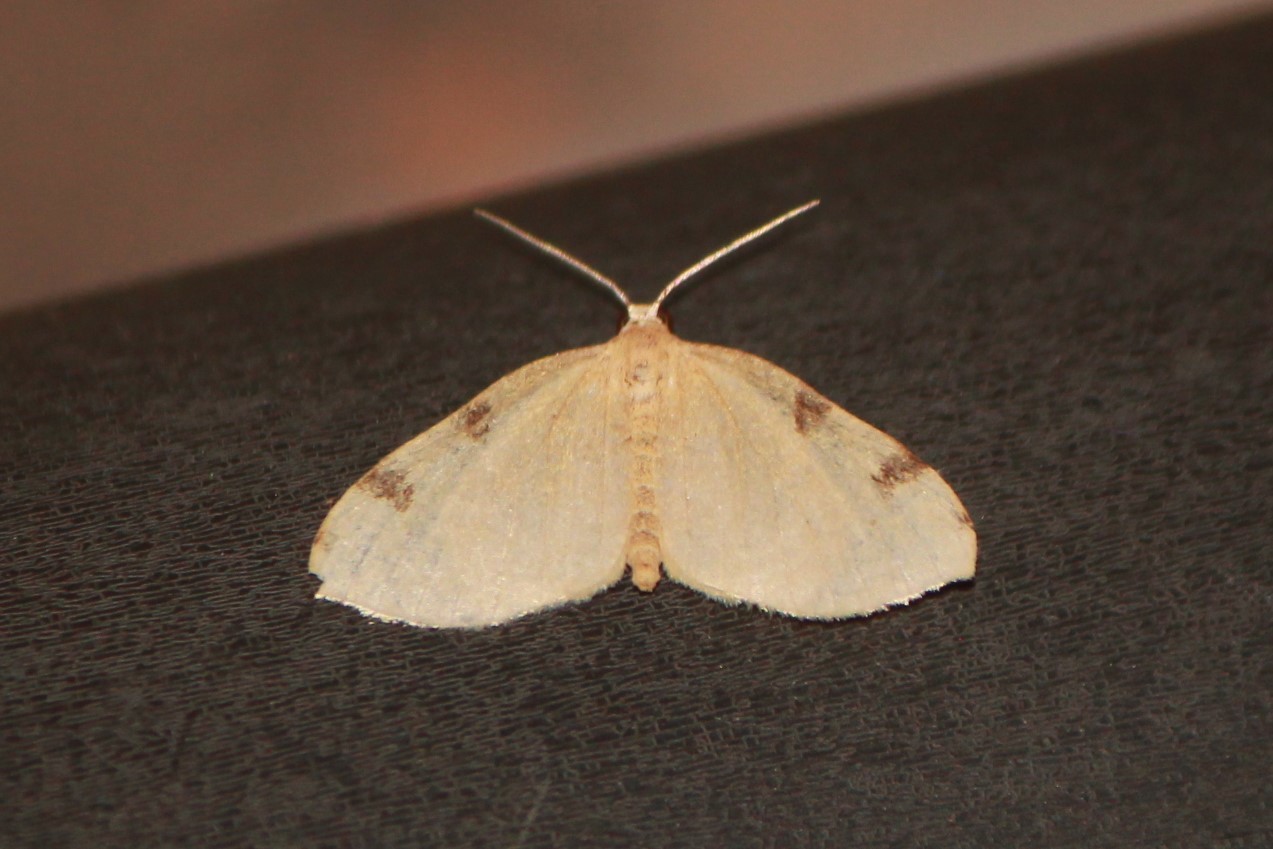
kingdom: Animalia
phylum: Arthropoda
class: Insecta
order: Lepidoptera
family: Geometridae
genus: Heterophleps
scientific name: Heterophleps triguttaria
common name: Three-spotted fillip
